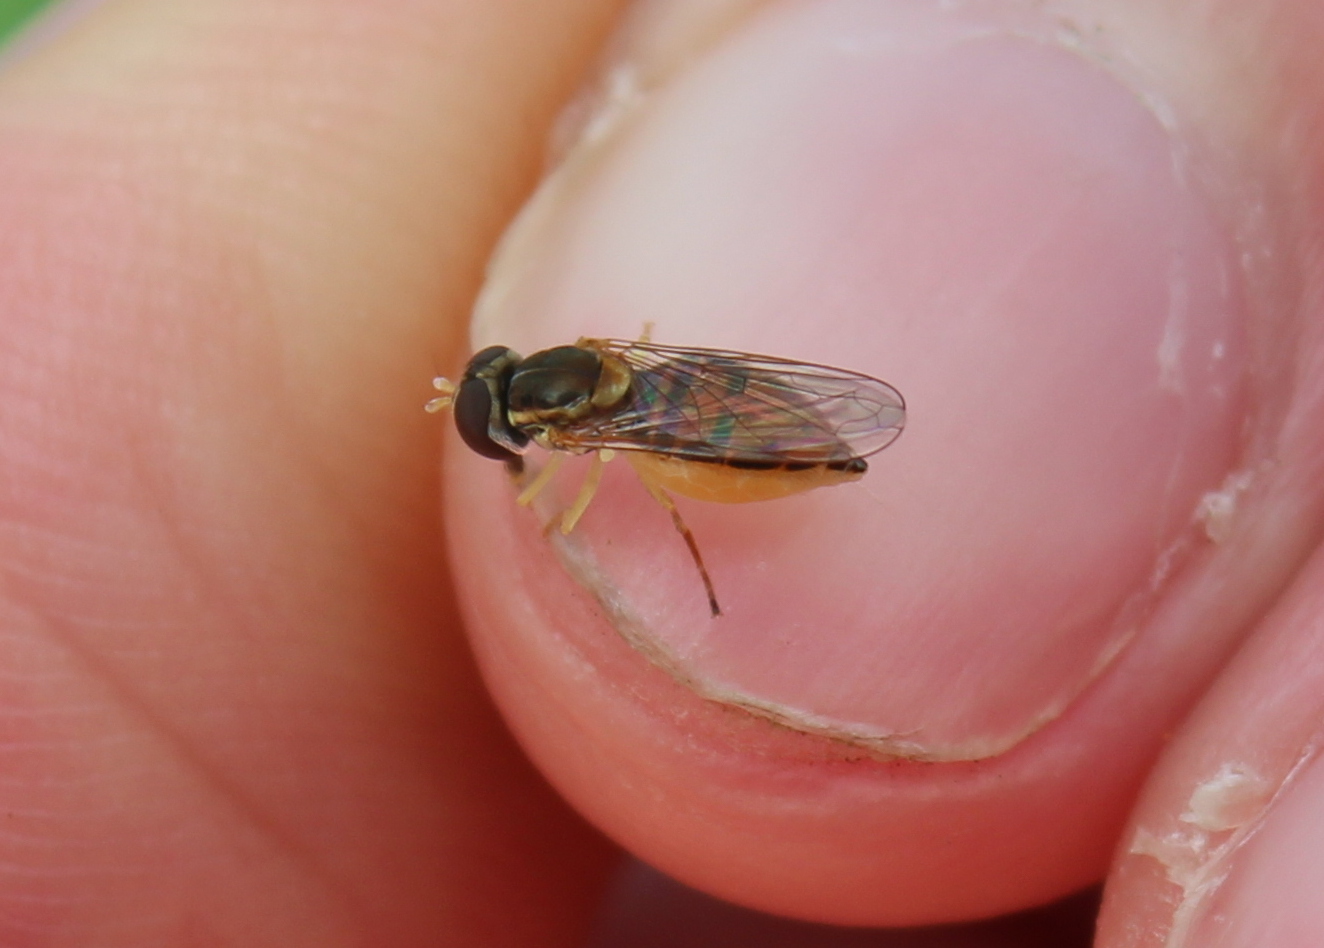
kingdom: Animalia
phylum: Arthropoda
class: Insecta
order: Diptera
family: Syrphidae
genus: Toxomerus
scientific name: Toxomerus marginatus
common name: Syrphid fly
